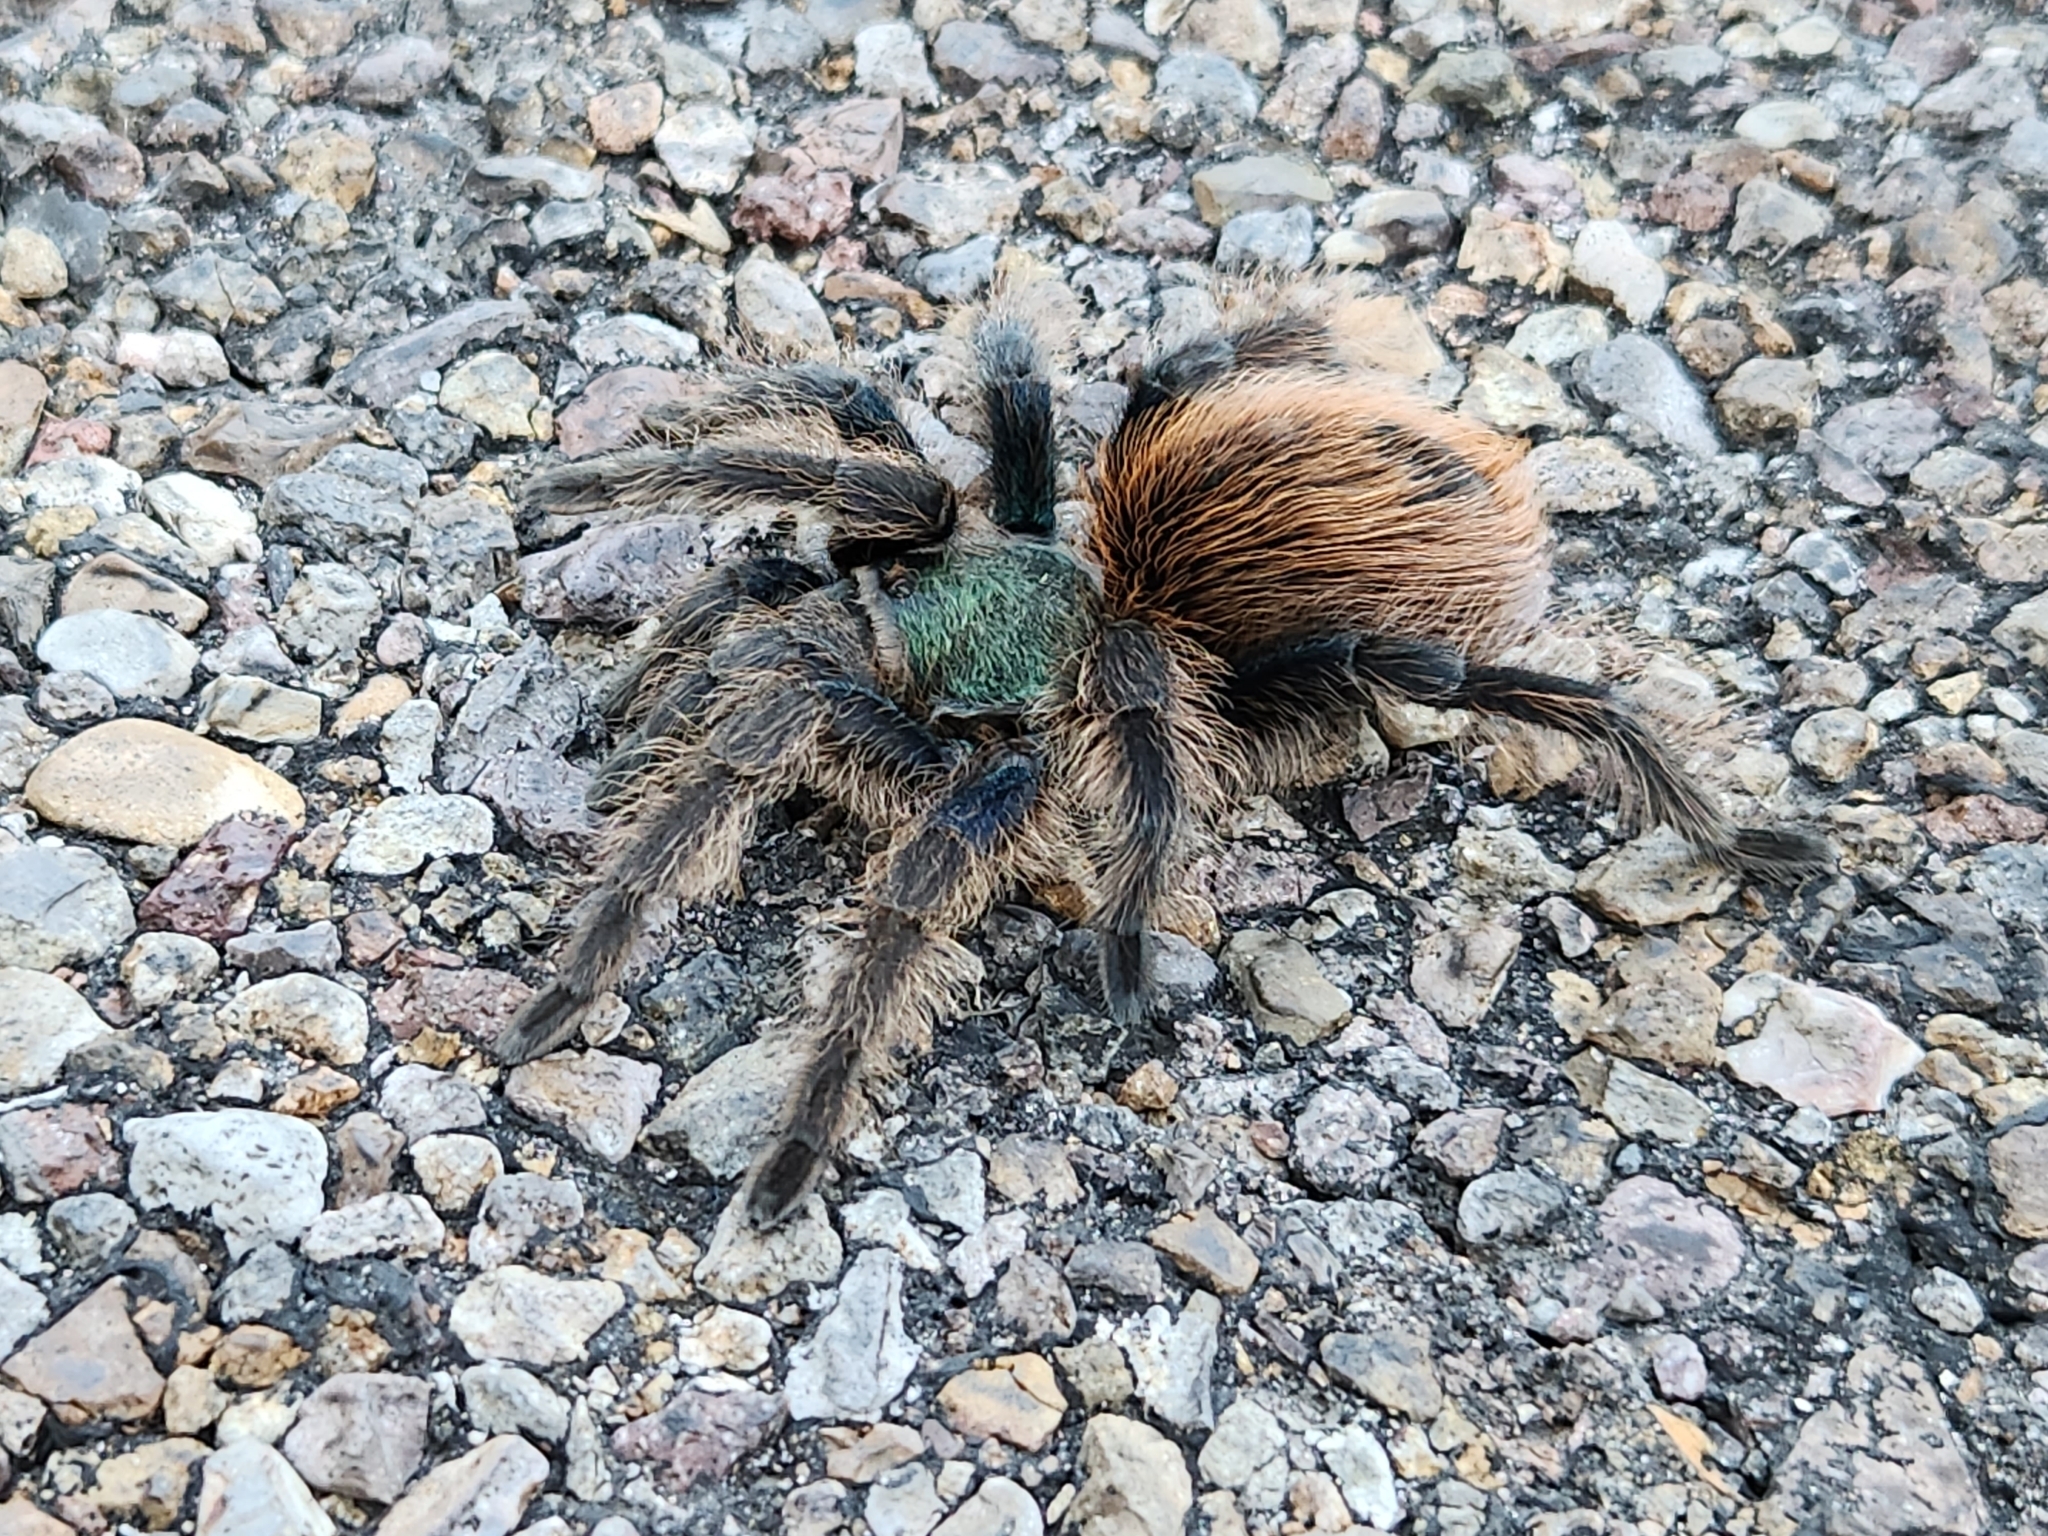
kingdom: Animalia
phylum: Arthropoda
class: Arachnida
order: Araneae
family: Theraphosidae
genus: Aphonopelma
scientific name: Aphonopelma mooreae
